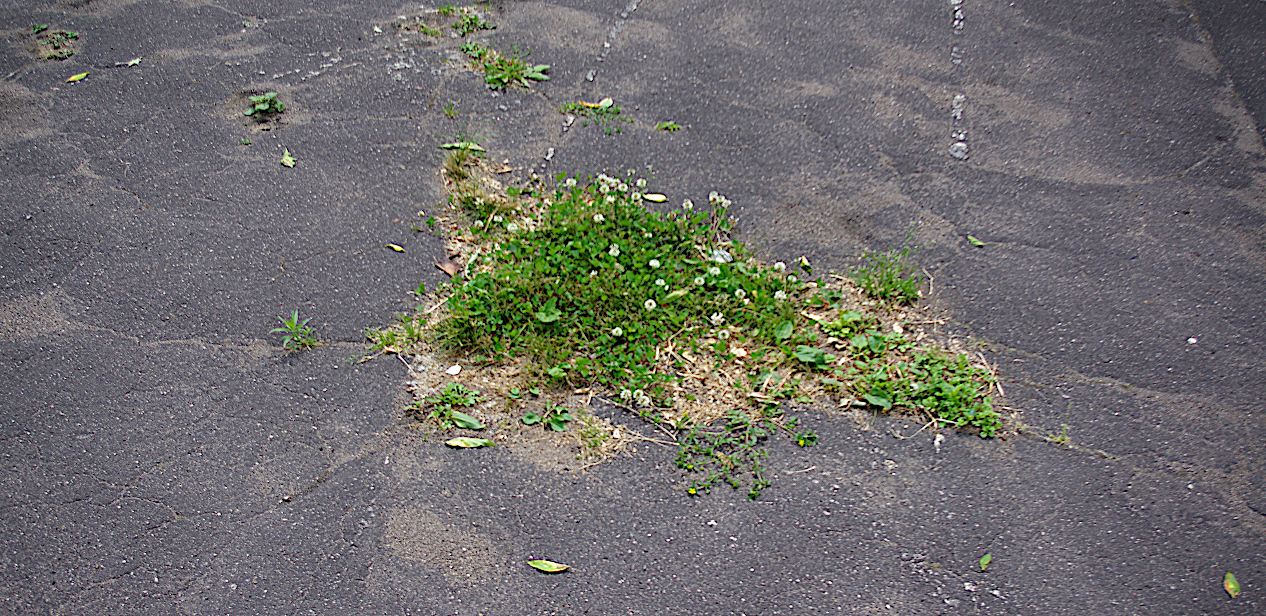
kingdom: Plantae
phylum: Tracheophyta
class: Magnoliopsida
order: Fabales
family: Fabaceae
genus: Trifolium
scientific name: Trifolium repens
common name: White clover
